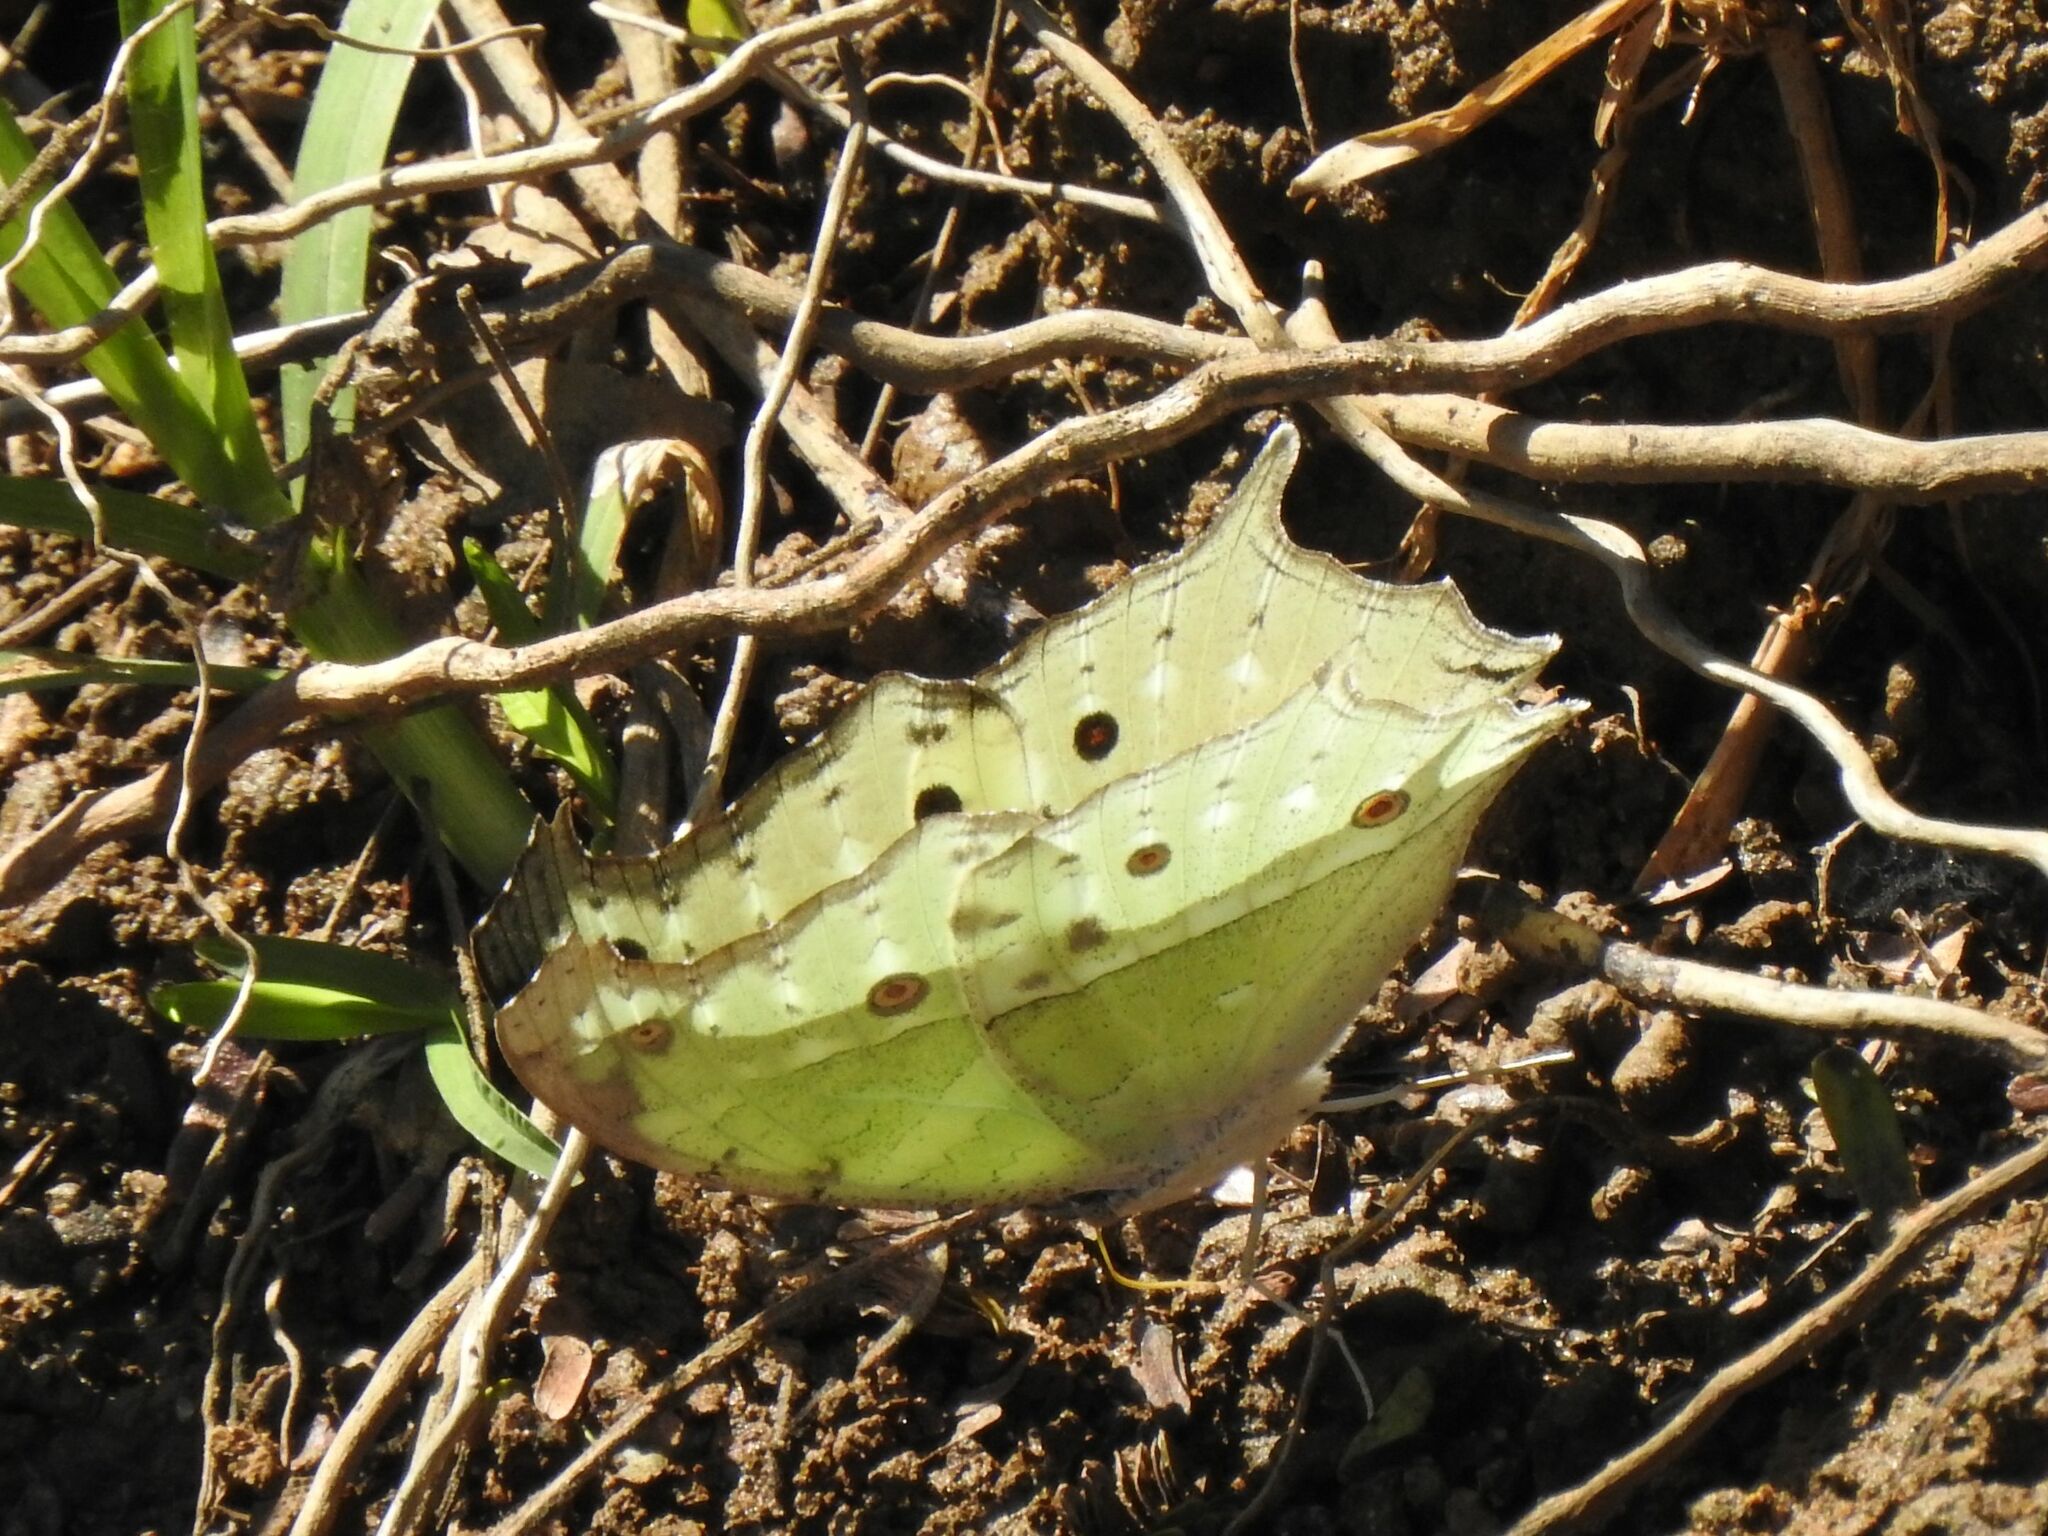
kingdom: Animalia
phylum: Arthropoda
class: Insecta
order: Lepidoptera
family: Nymphalidae
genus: Salamis
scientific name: Salamis Protogoniomorpha parhassus
